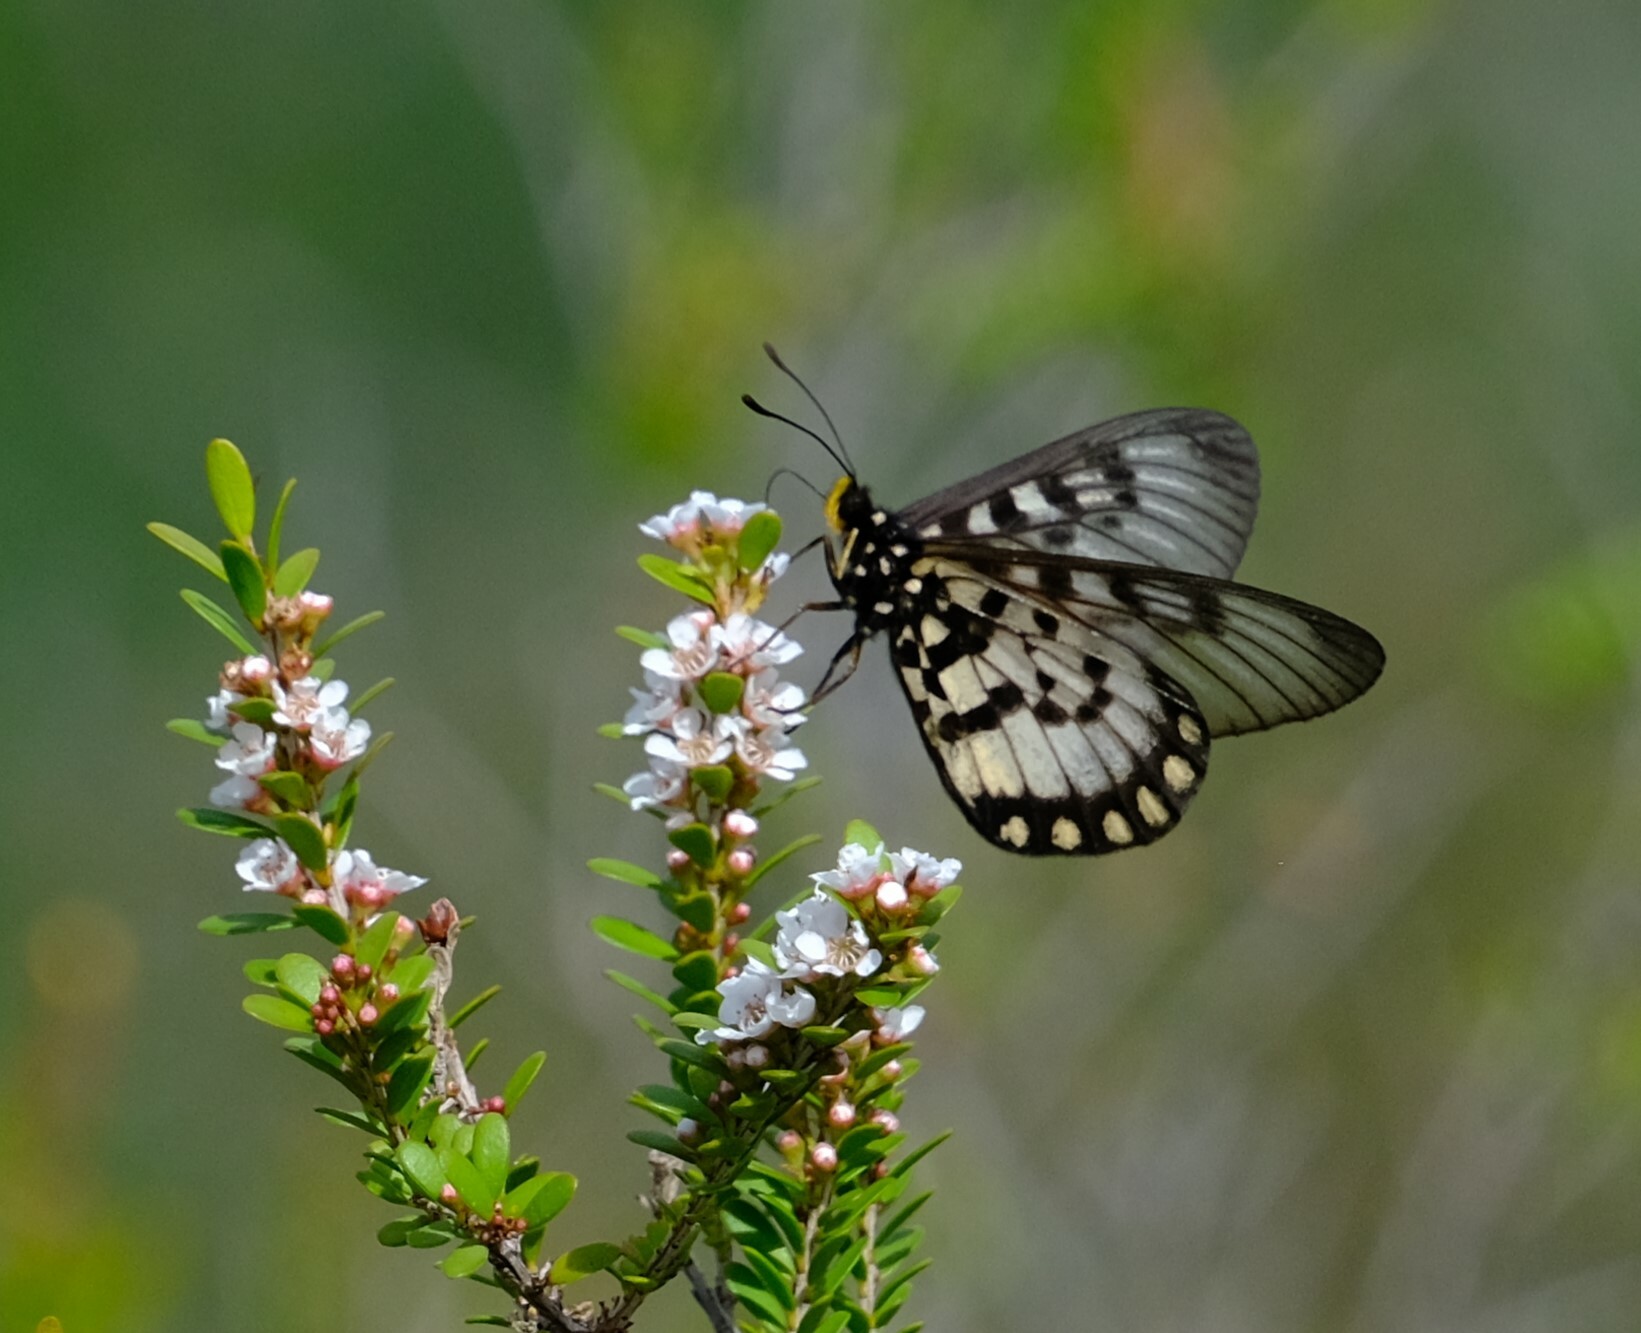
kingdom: Animalia
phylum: Arthropoda
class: Insecta
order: Lepidoptera
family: Nymphalidae
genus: Acraea
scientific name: Acraea andromacha
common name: Glasswing
